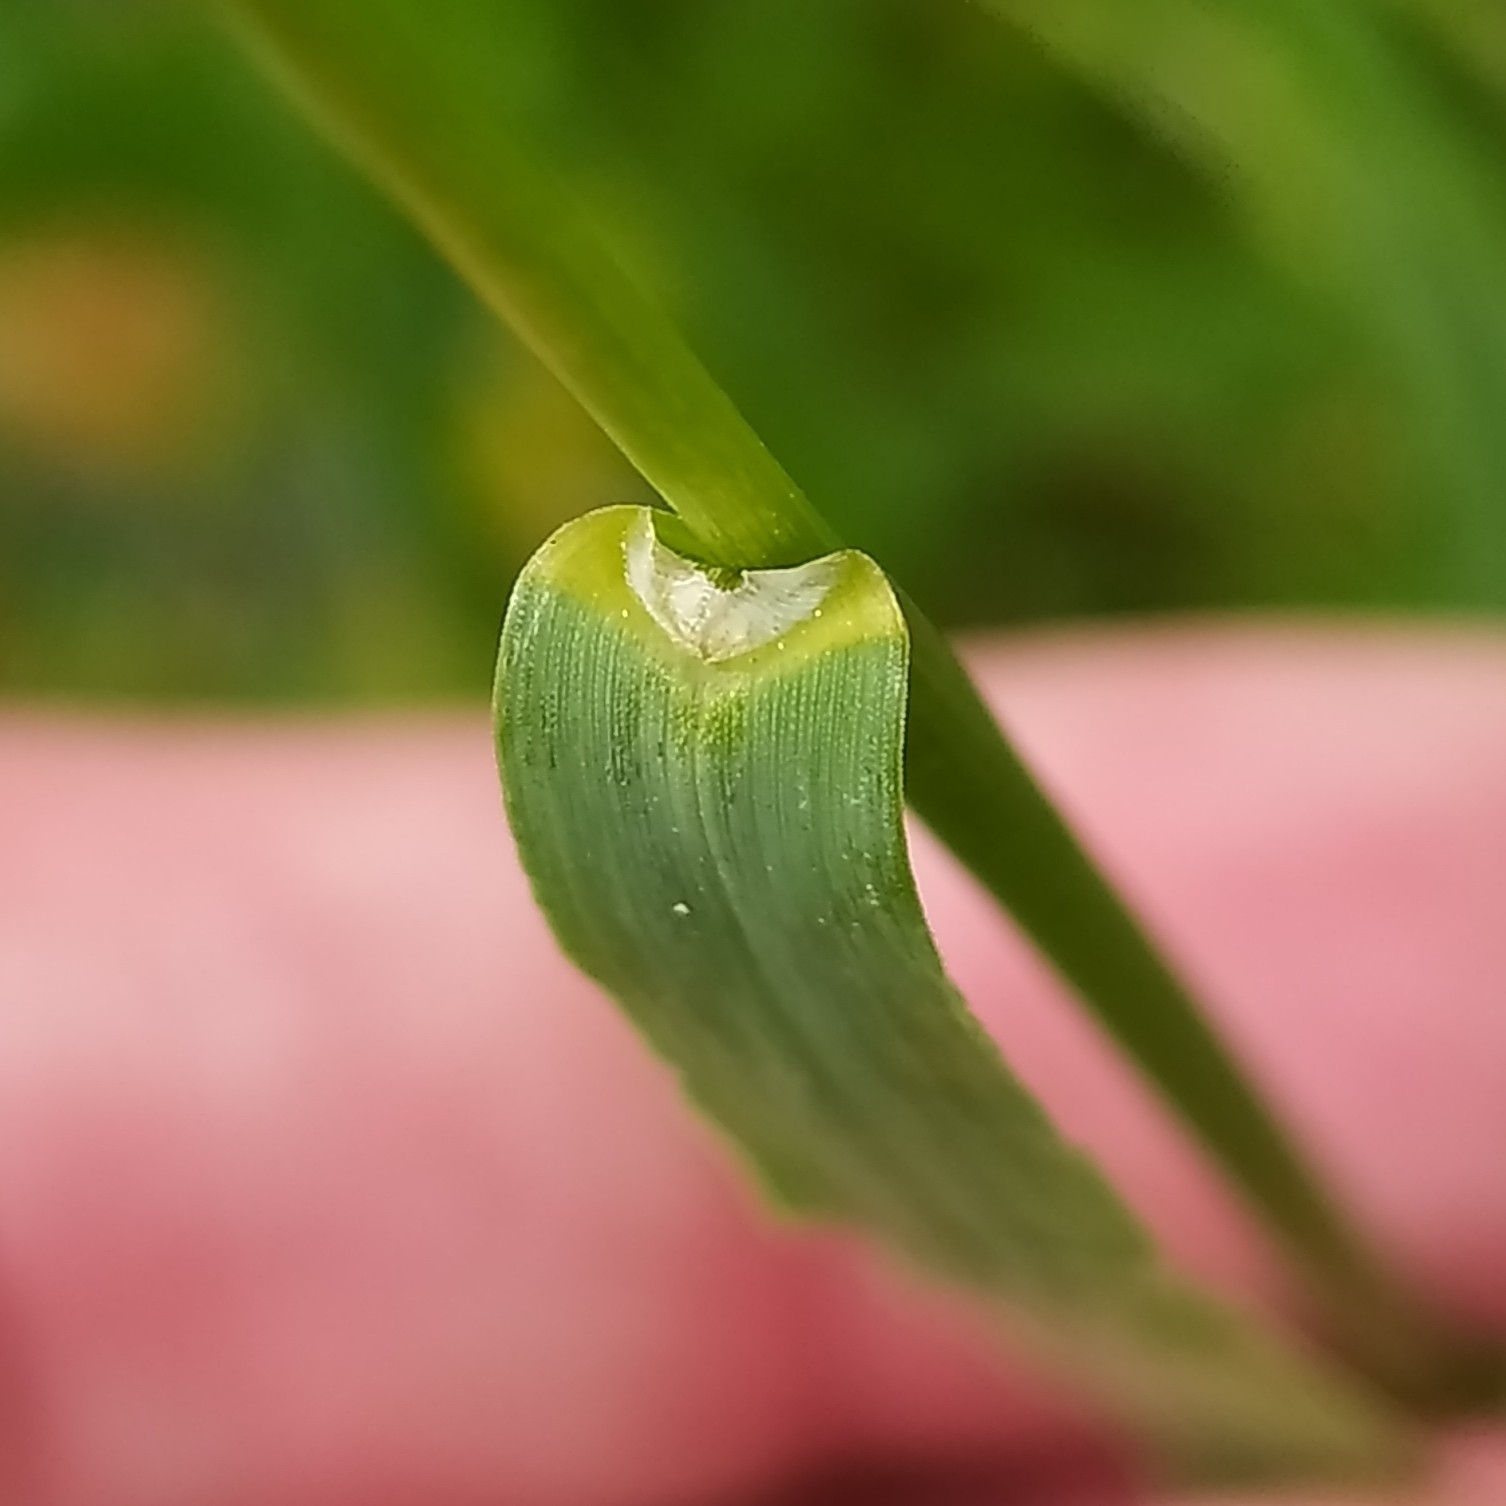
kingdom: Plantae
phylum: Tracheophyta
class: Liliopsida
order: Poales
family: Poaceae
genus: Bromus
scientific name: Bromus inermis
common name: Smooth brome
